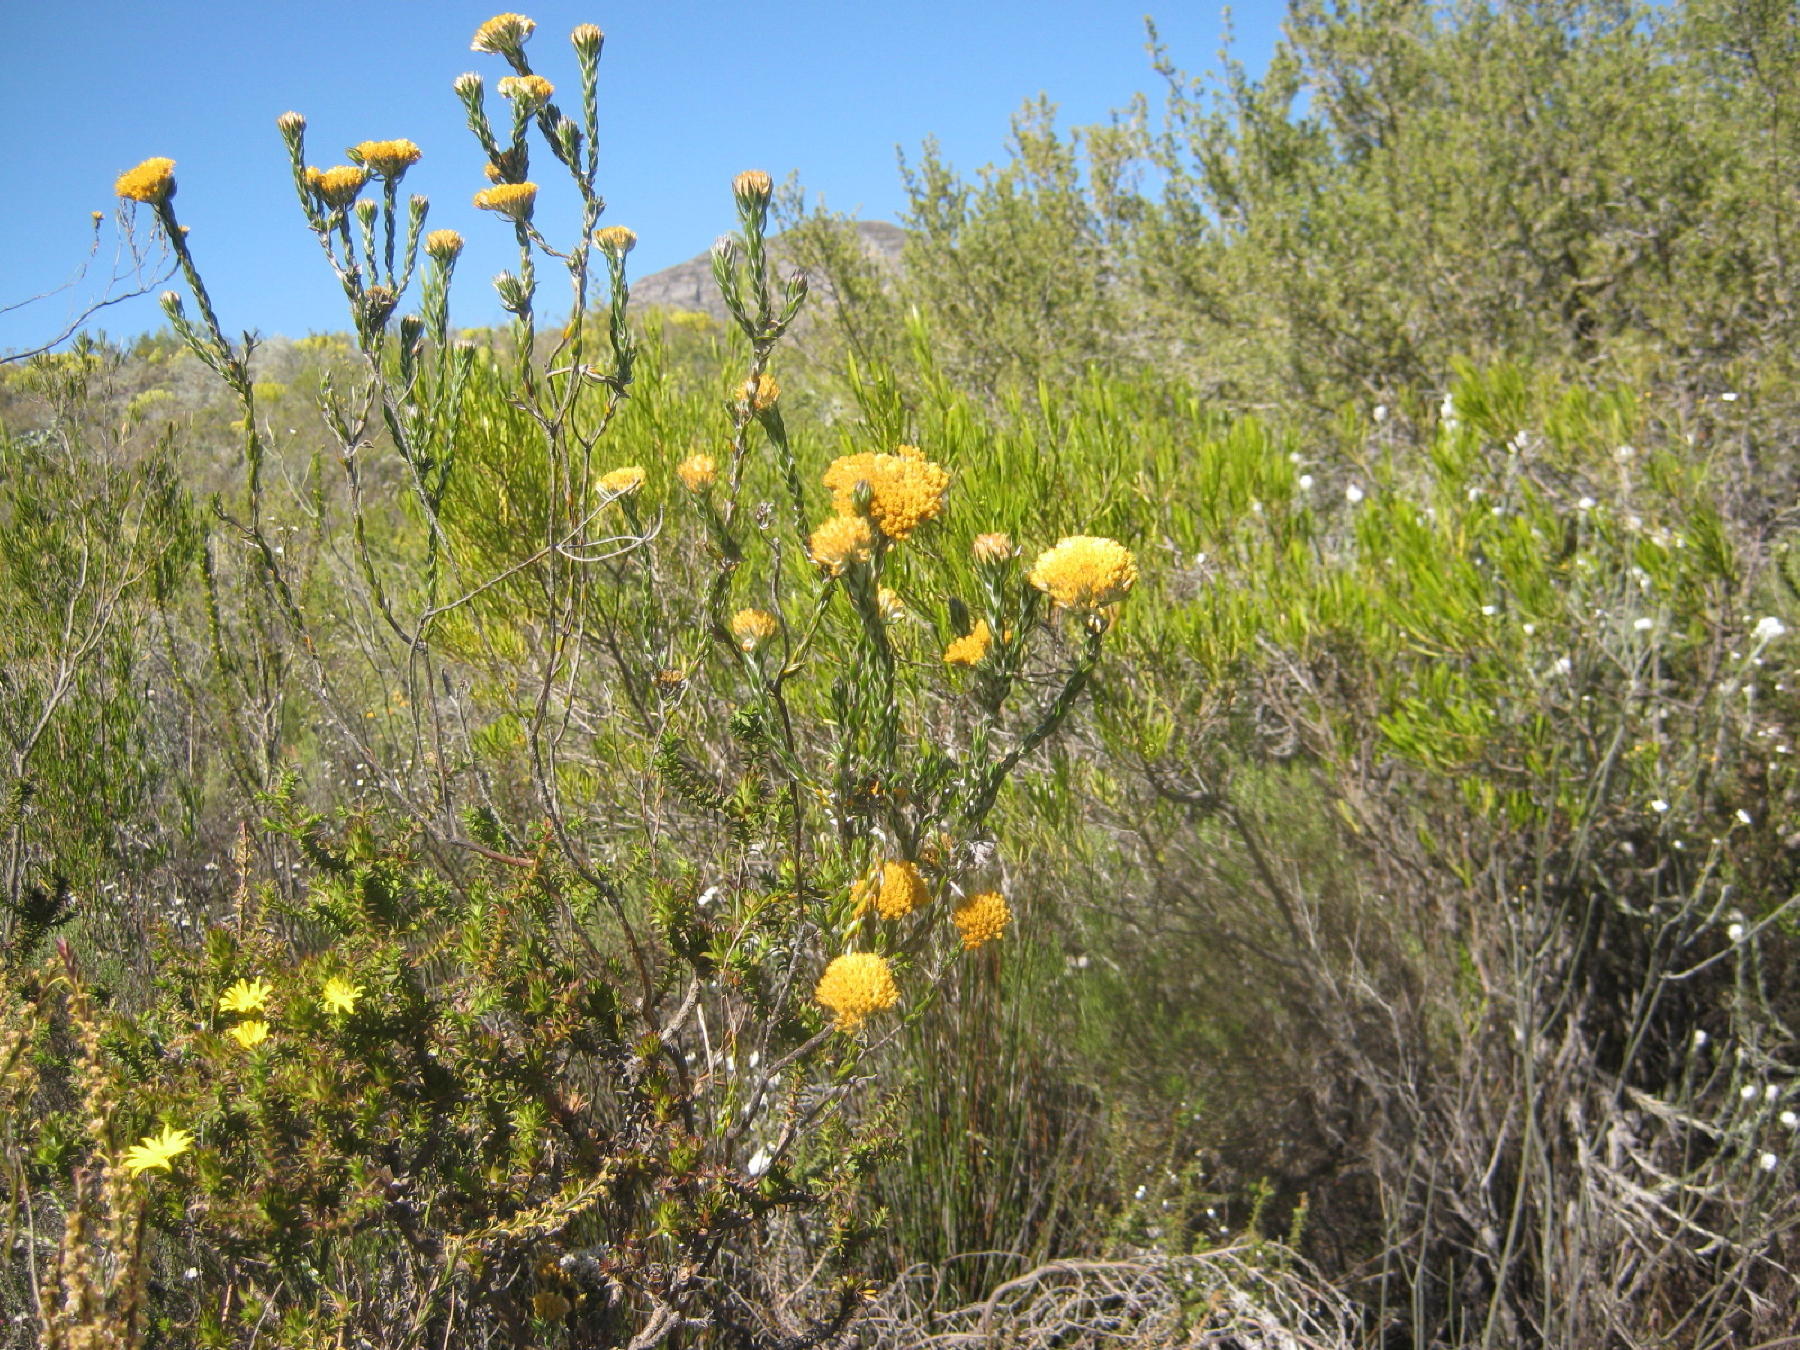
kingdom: Plantae
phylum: Tracheophyta
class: Magnoliopsida
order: Asterales
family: Asteraceae
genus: Metalasia
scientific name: Metalasia pulcherrima
